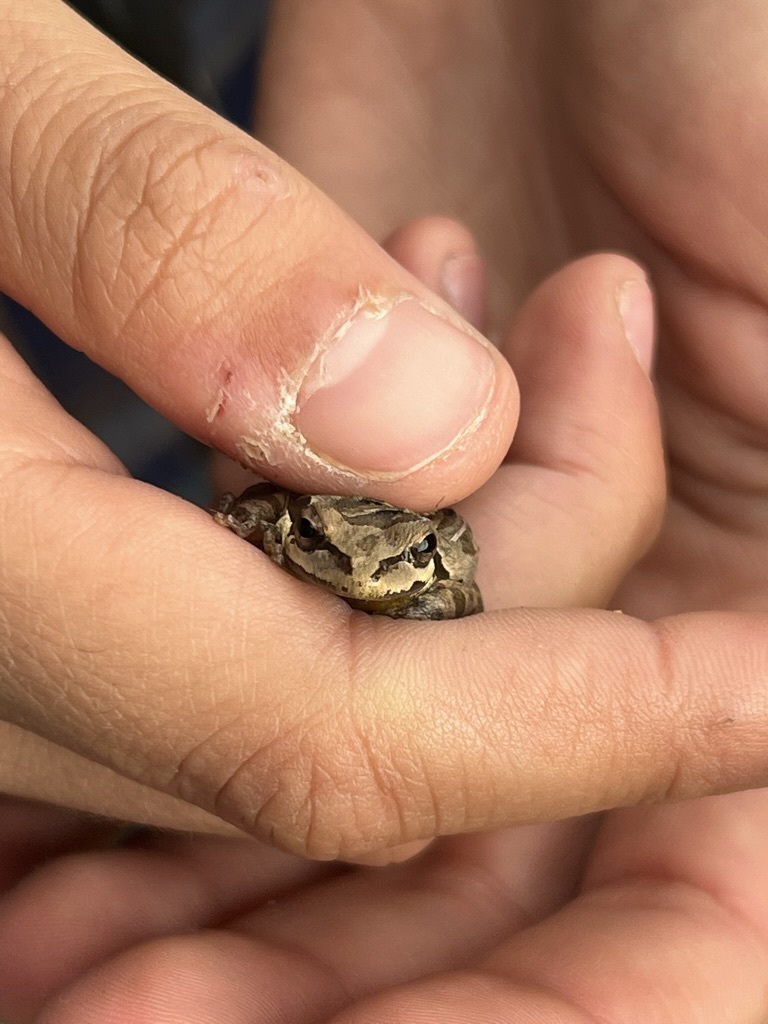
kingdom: Animalia
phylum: Chordata
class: Amphibia
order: Anura
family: Hylidae
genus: Pseudacris
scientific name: Pseudacris regilla
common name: Pacific chorus frog
